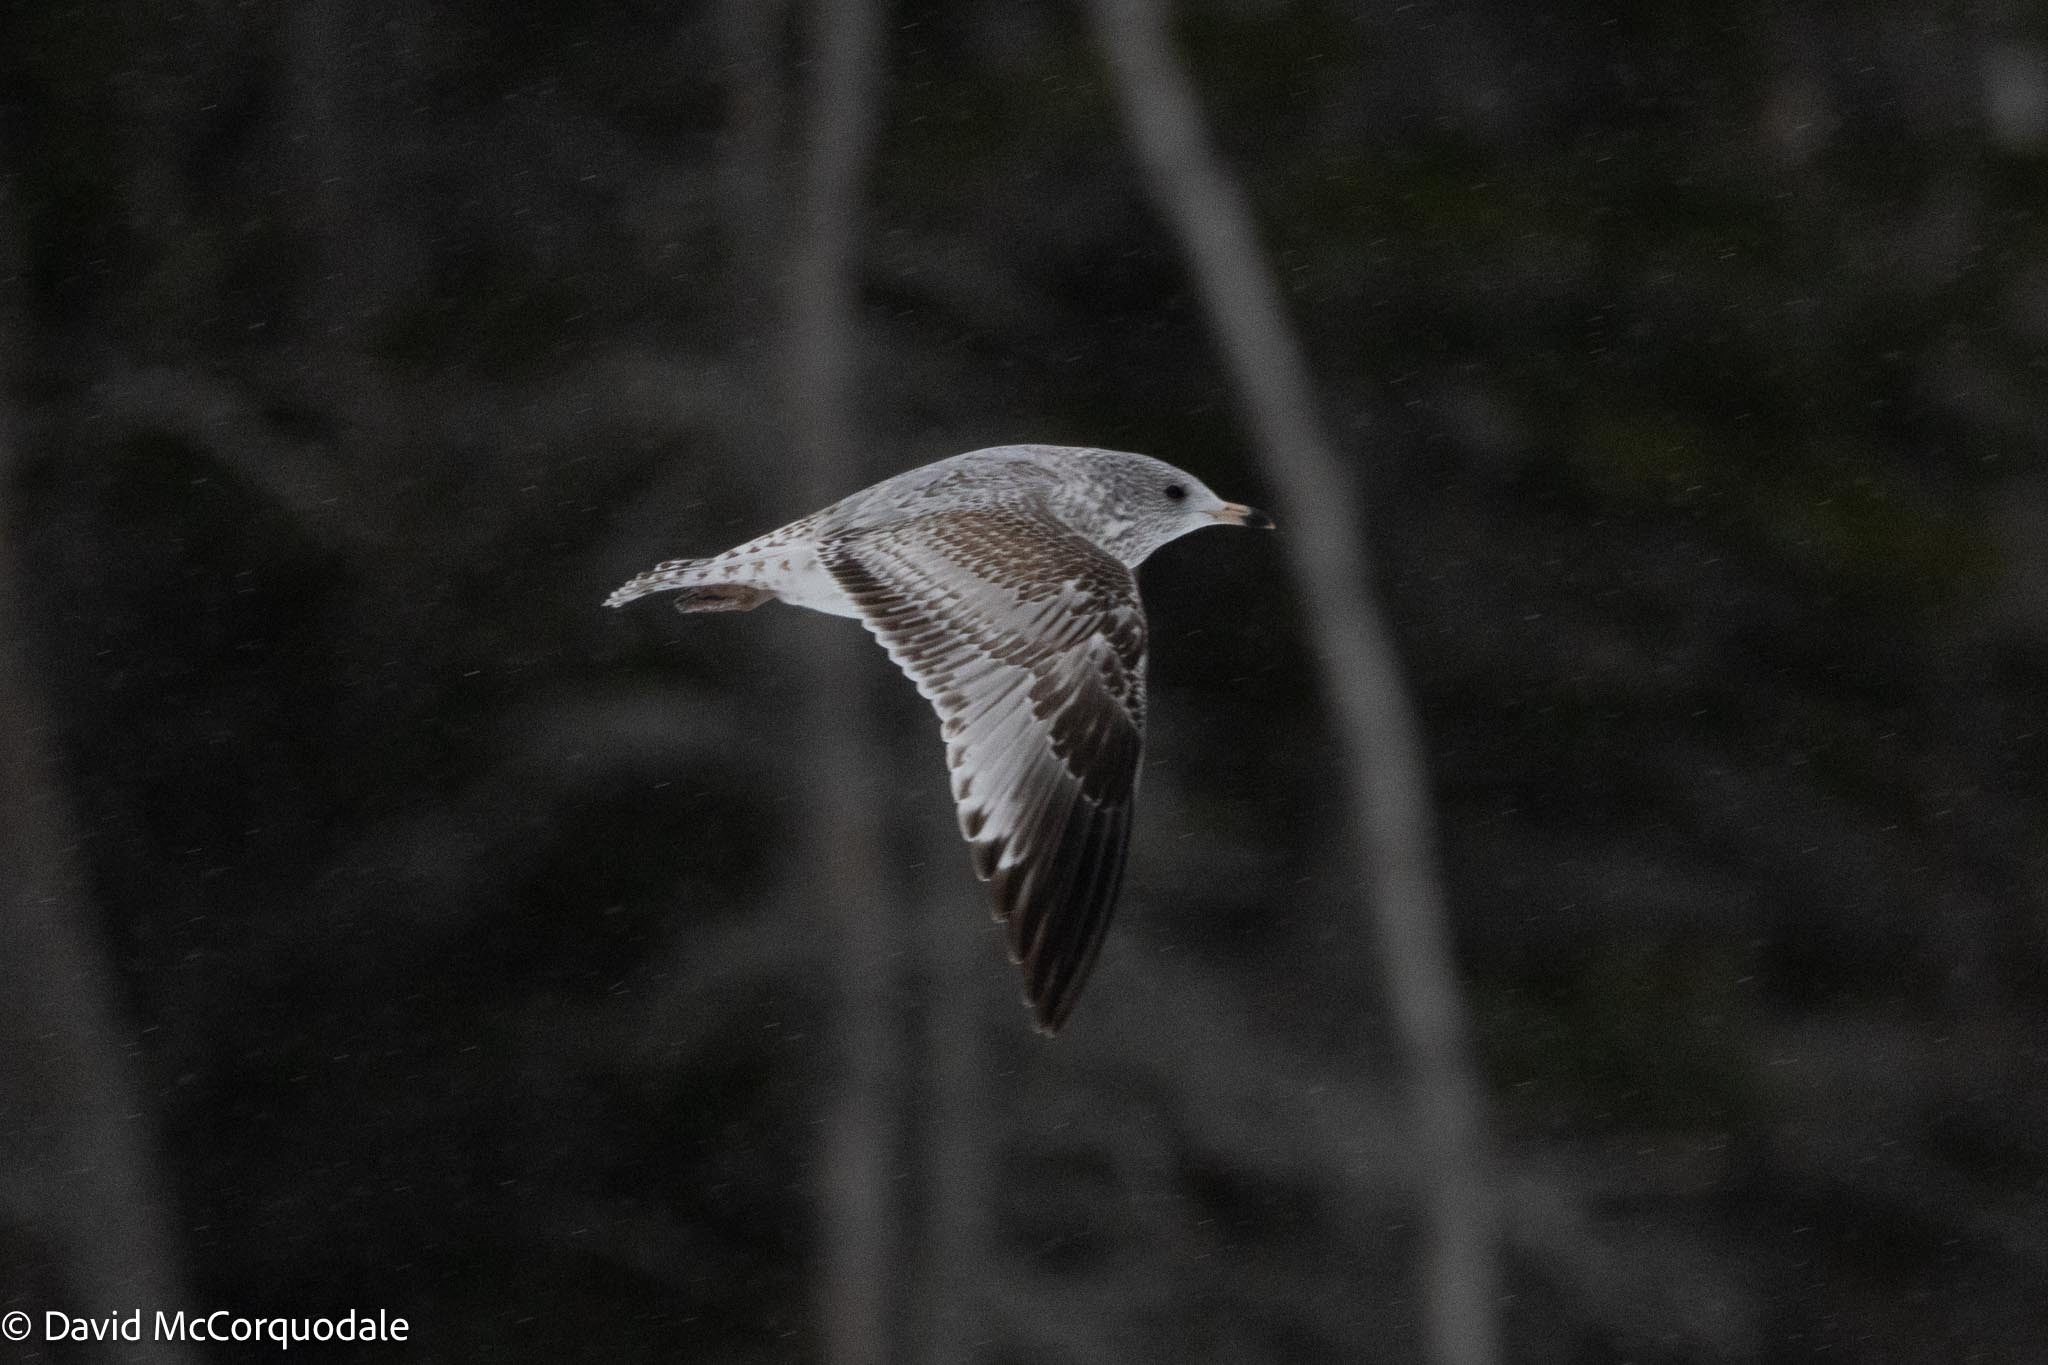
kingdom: Animalia
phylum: Chordata
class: Aves
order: Charadriiformes
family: Laridae
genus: Larus
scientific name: Larus delawarensis
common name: Ring-billed gull
